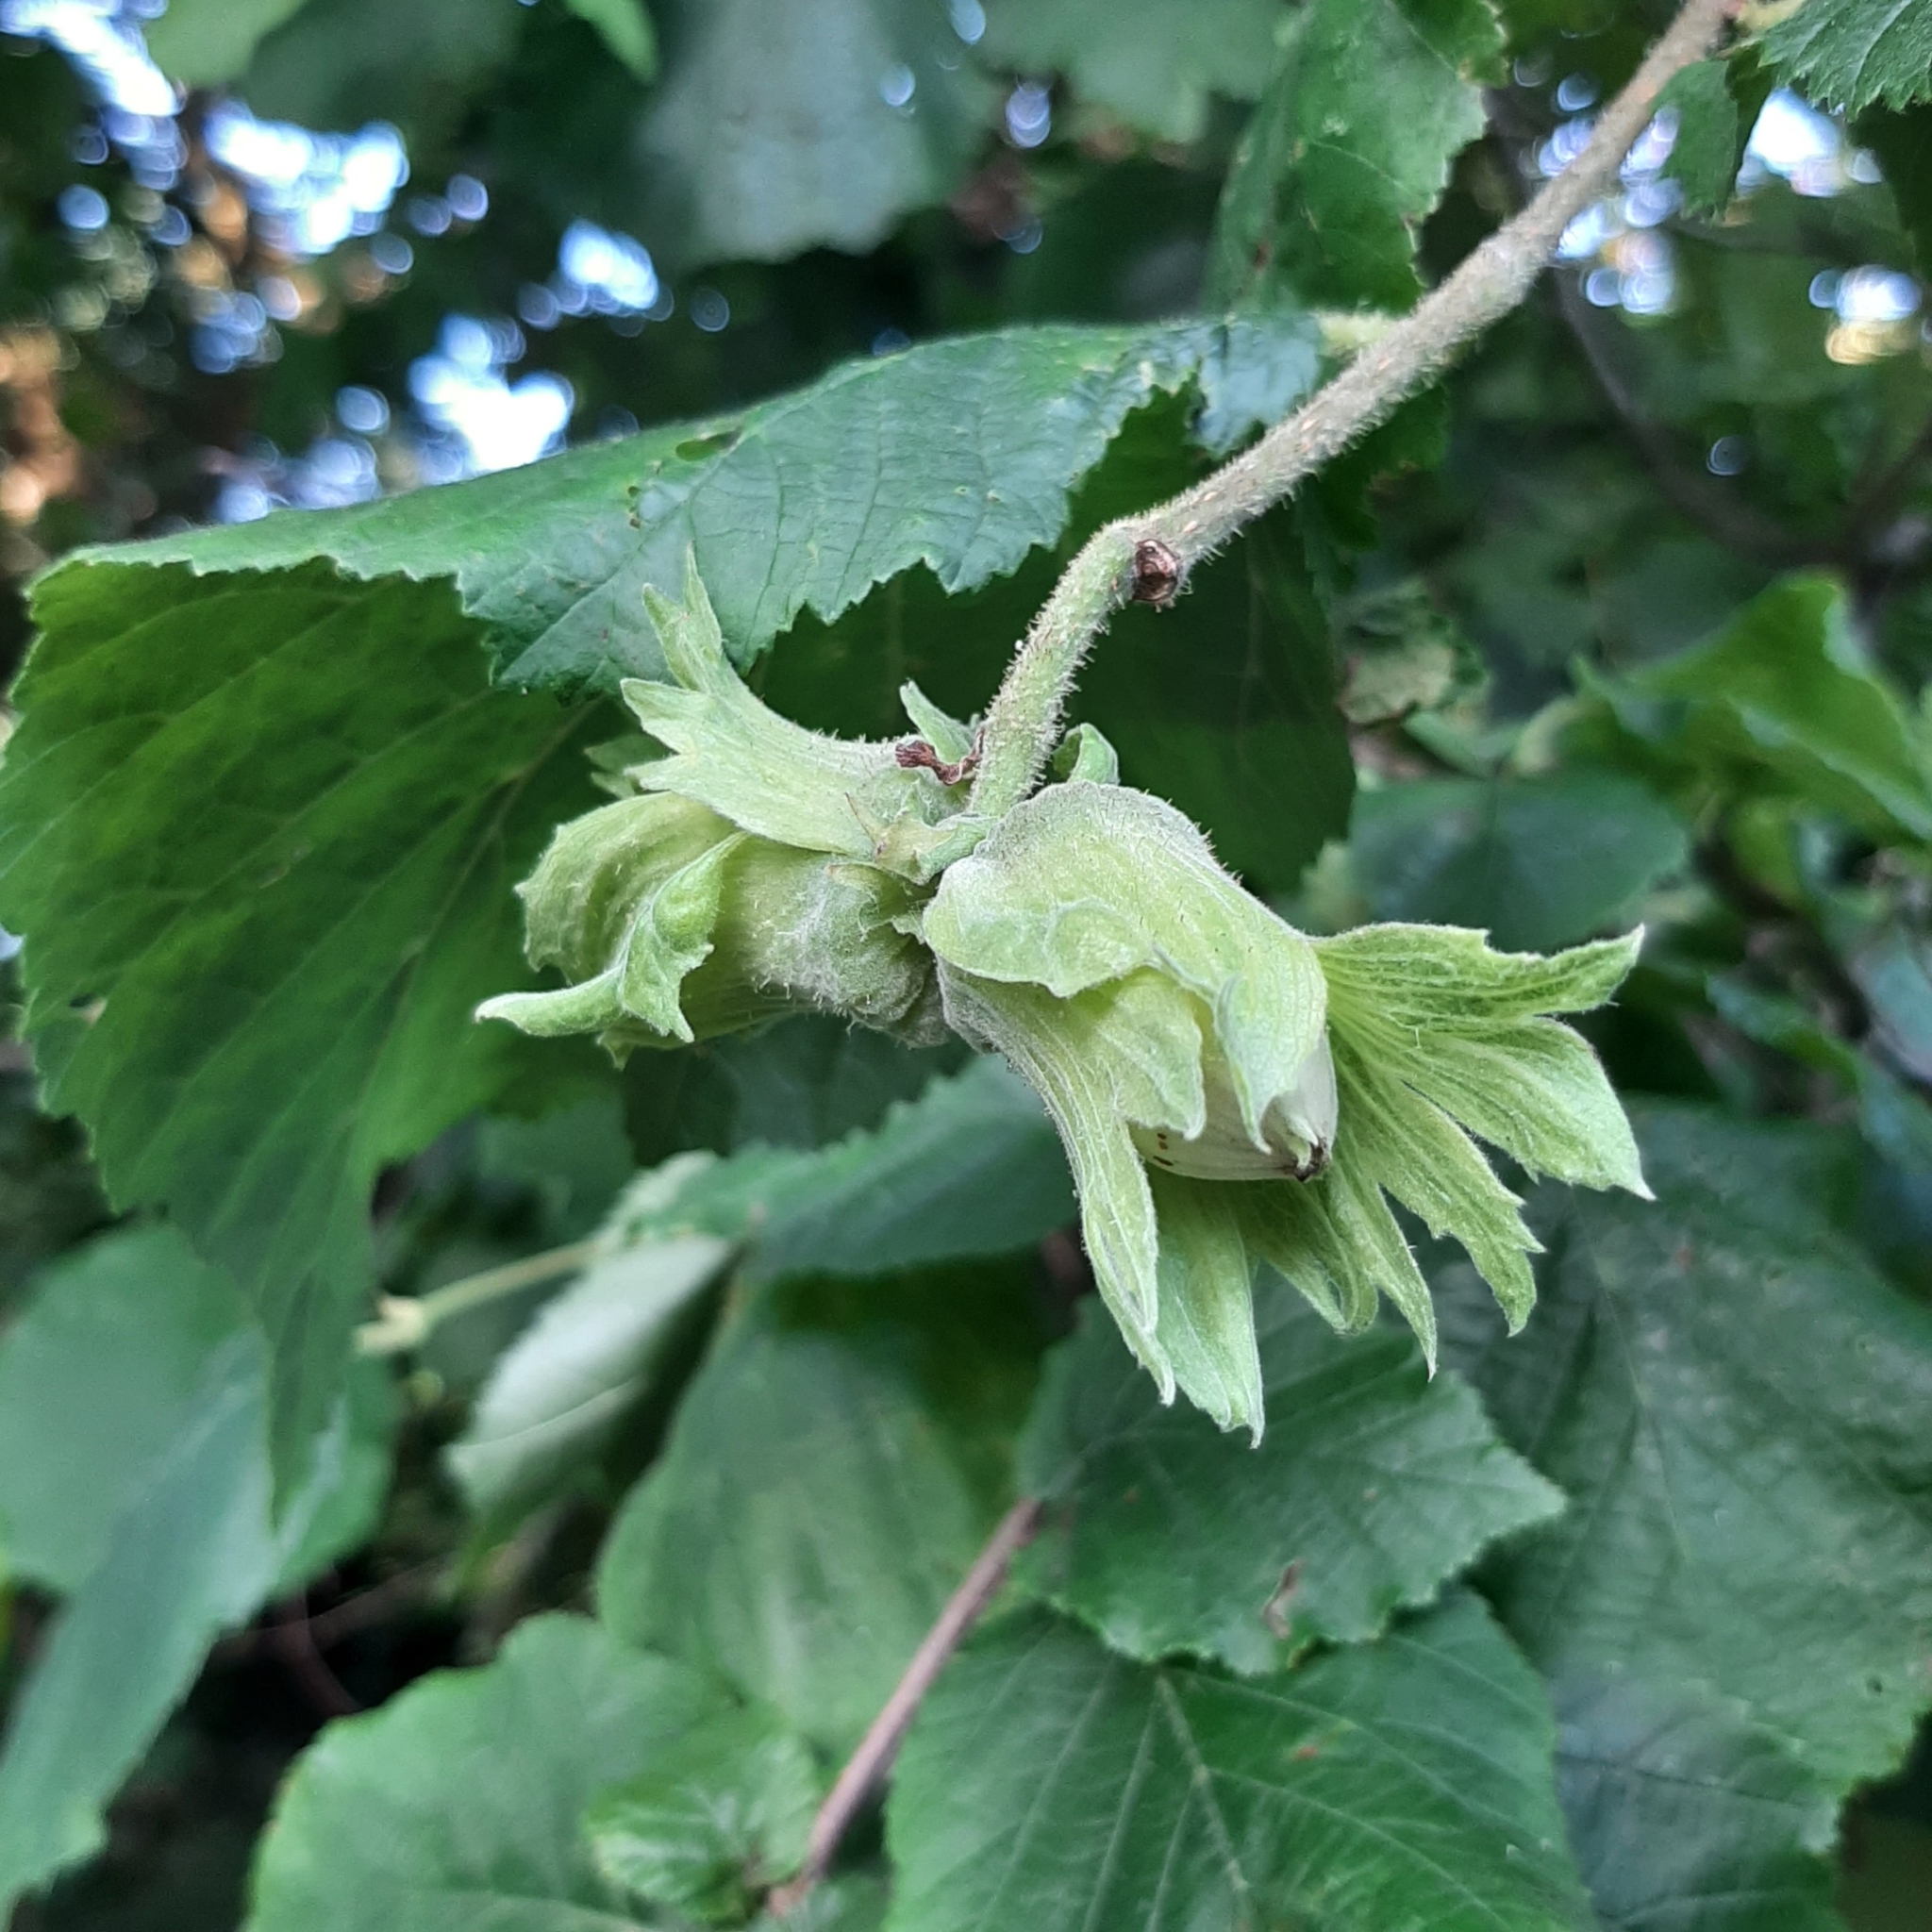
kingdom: Plantae
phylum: Tracheophyta
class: Magnoliopsida
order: Fagales
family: Betulaceae
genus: Corylus
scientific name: Corylus avellana
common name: European hazel
